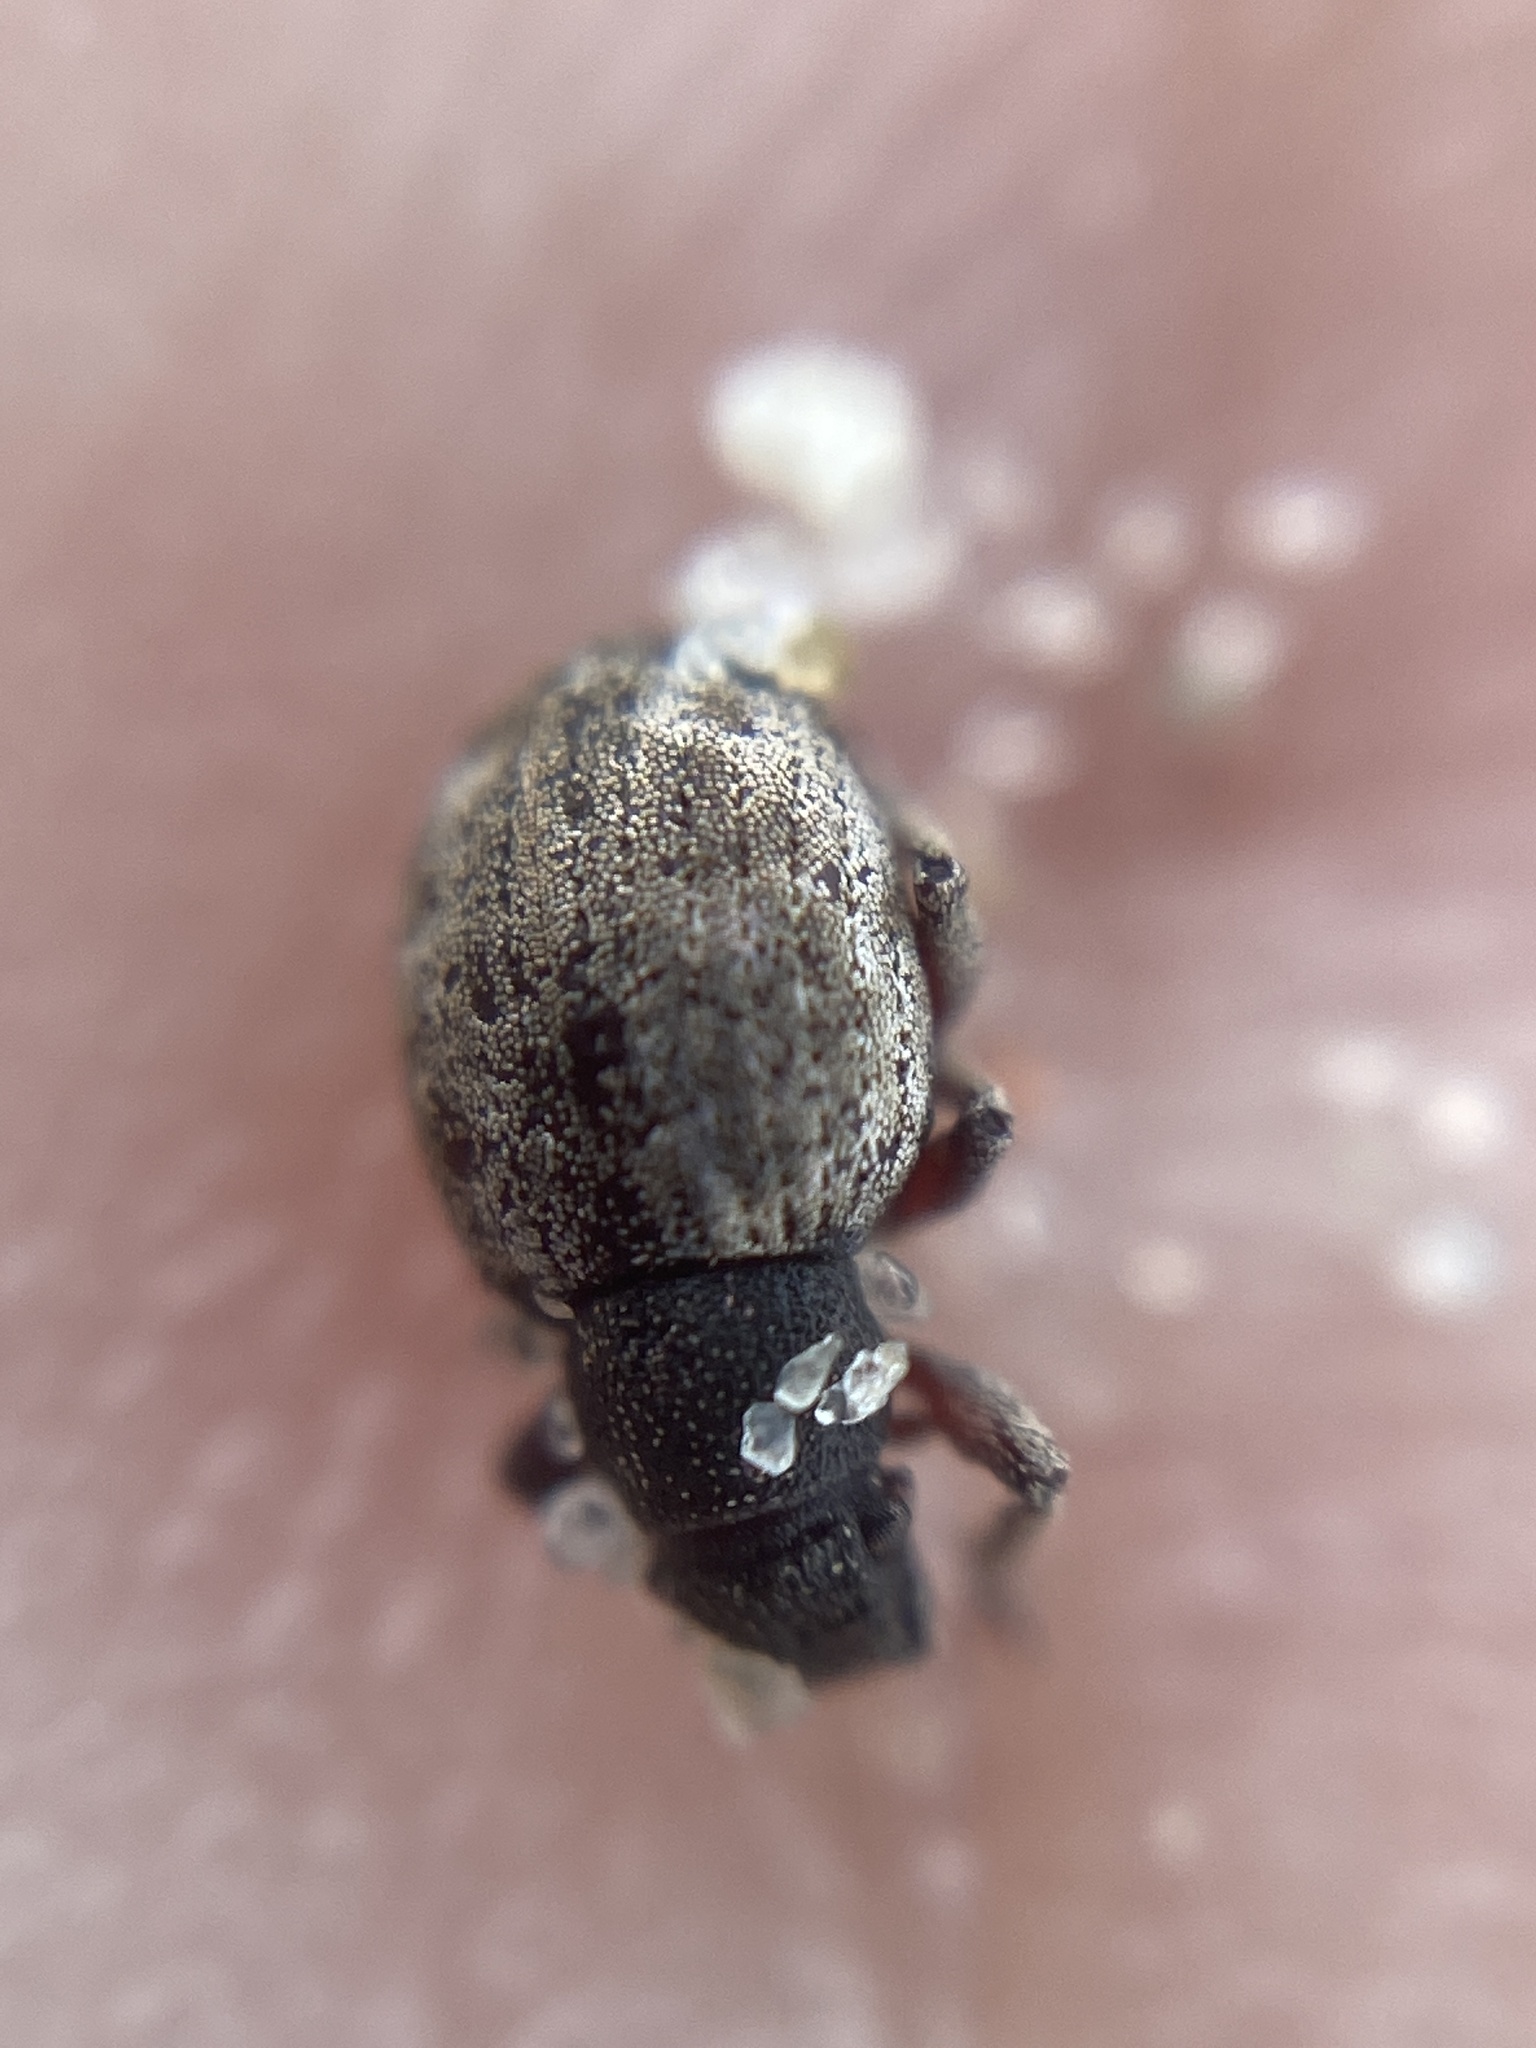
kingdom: Animalia
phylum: Arthropoda
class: Insecta
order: Coleoptera
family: Curculionidae
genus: Strophosoma
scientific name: Strophosoma capitatum
